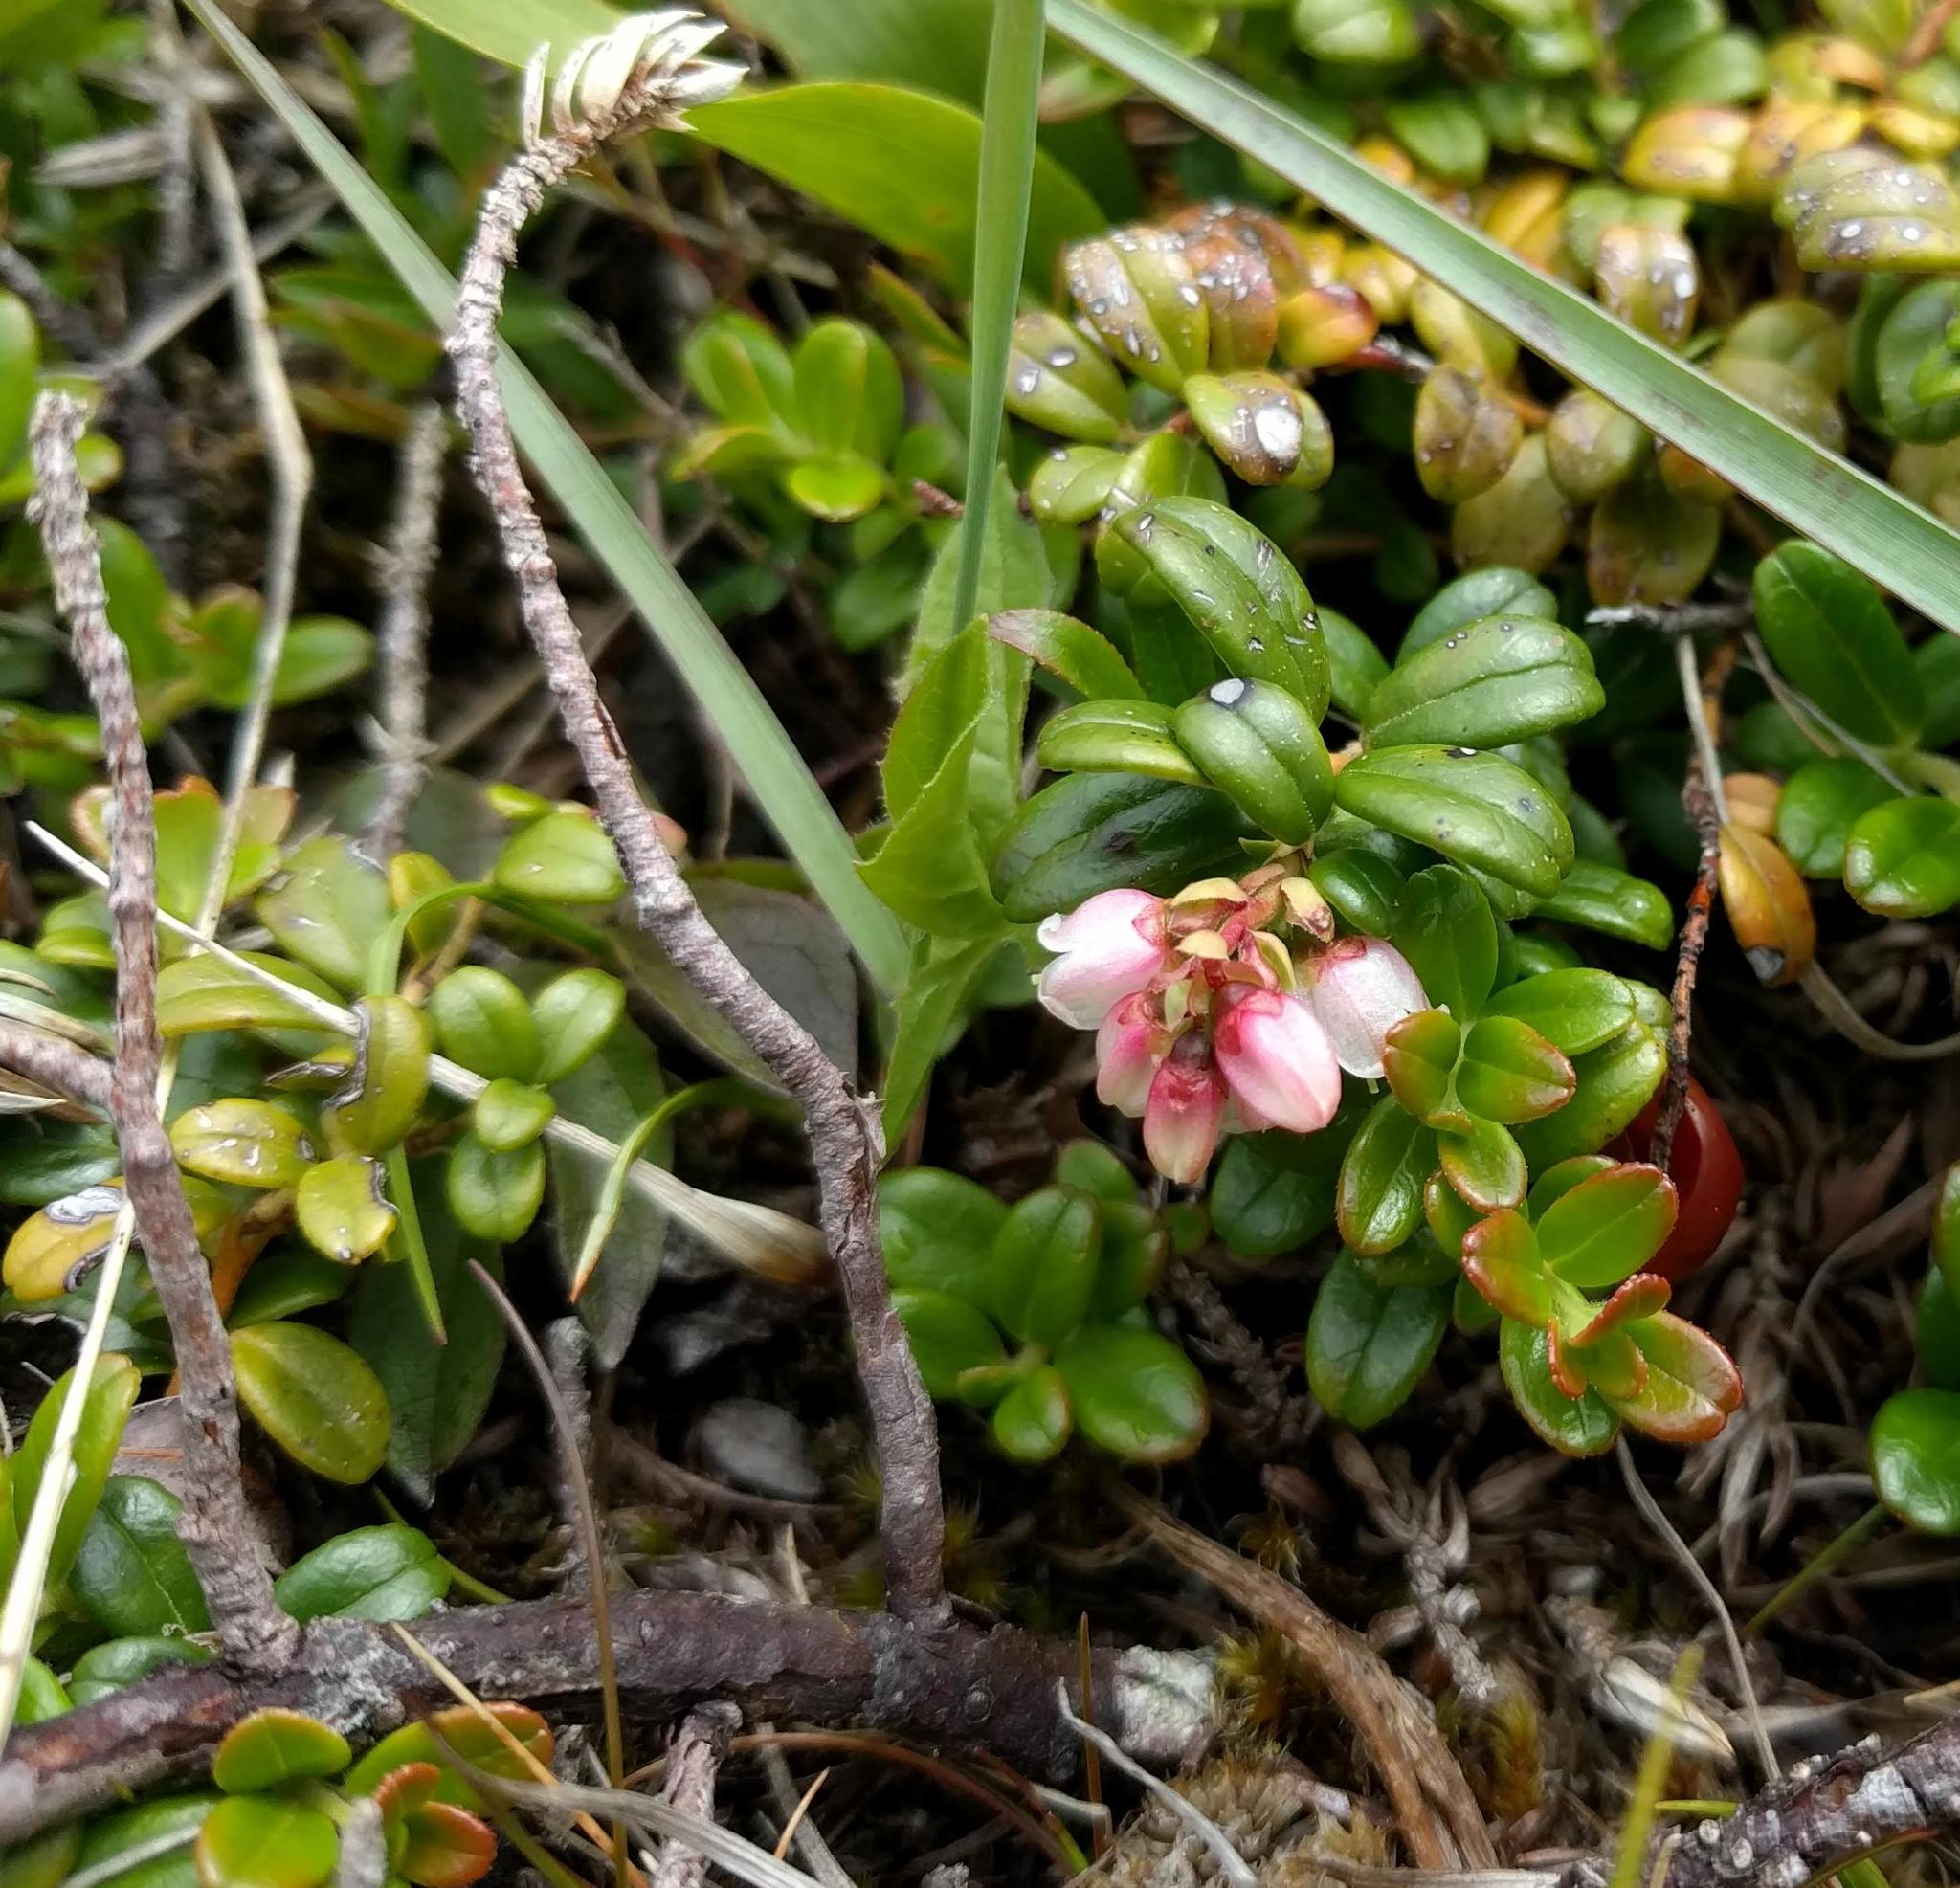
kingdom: Plantae
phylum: Tracheophyta
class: Magnoliopsida
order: Ericales
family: Ericaceae
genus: Vaccinium
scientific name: Vaccinium vitis-idaea
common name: Cowberry
